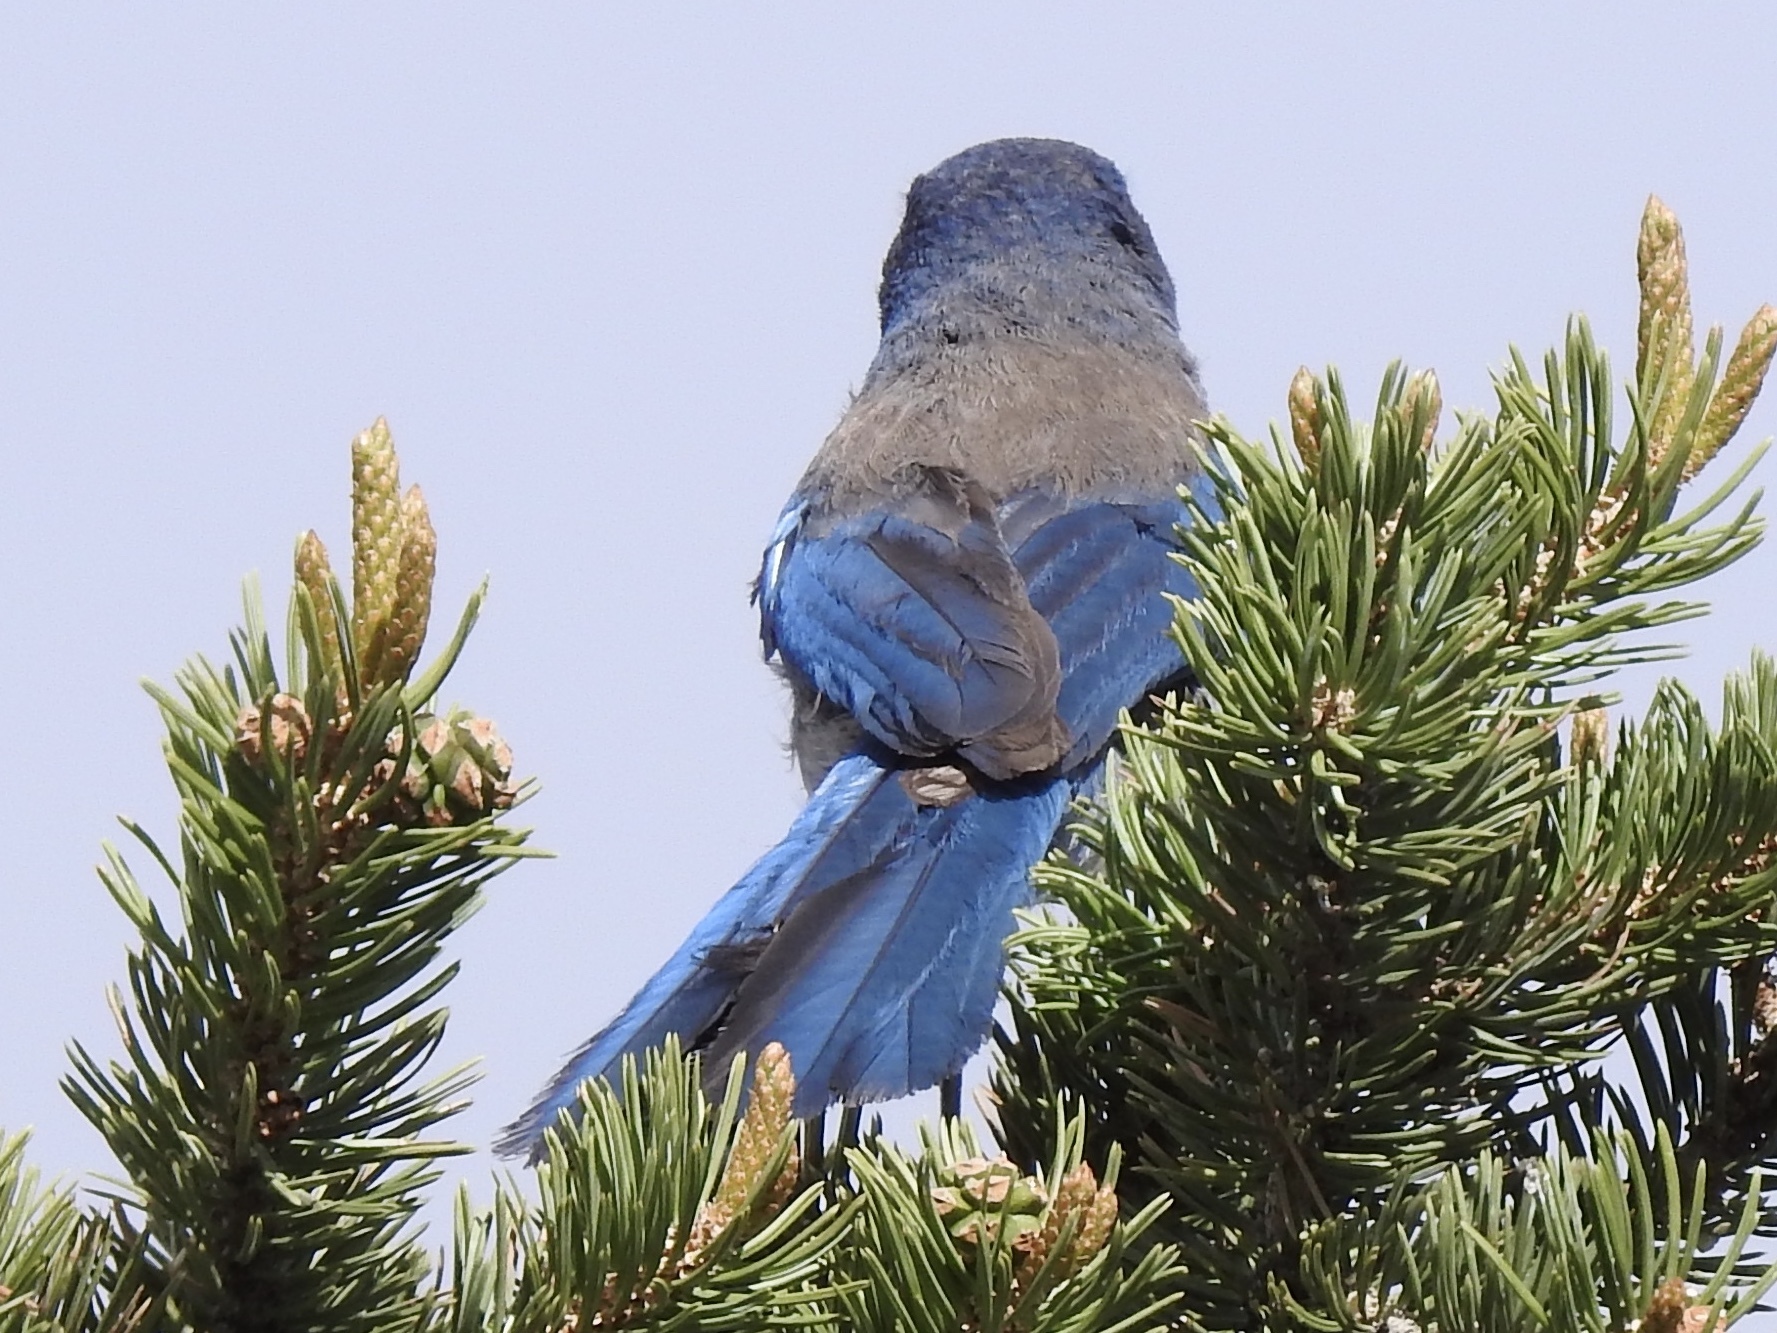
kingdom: Animalia
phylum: Chordata
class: Aves
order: Passeriformes
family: Corvidae
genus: Aphelocoma
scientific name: Aphelocoma woodhouseii
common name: Woodhouse's scrub-jay
